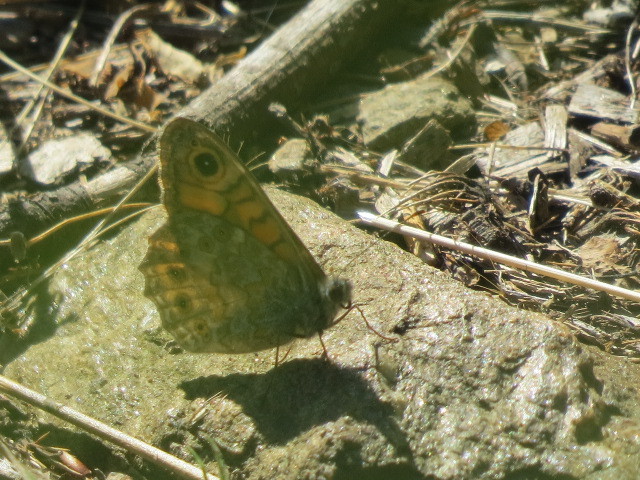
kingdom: Animalia
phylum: Arthropoda
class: Insecta
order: Lepidoptera
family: Nymphalidae
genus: Pararge
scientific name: Pararge Lasiommata megera
